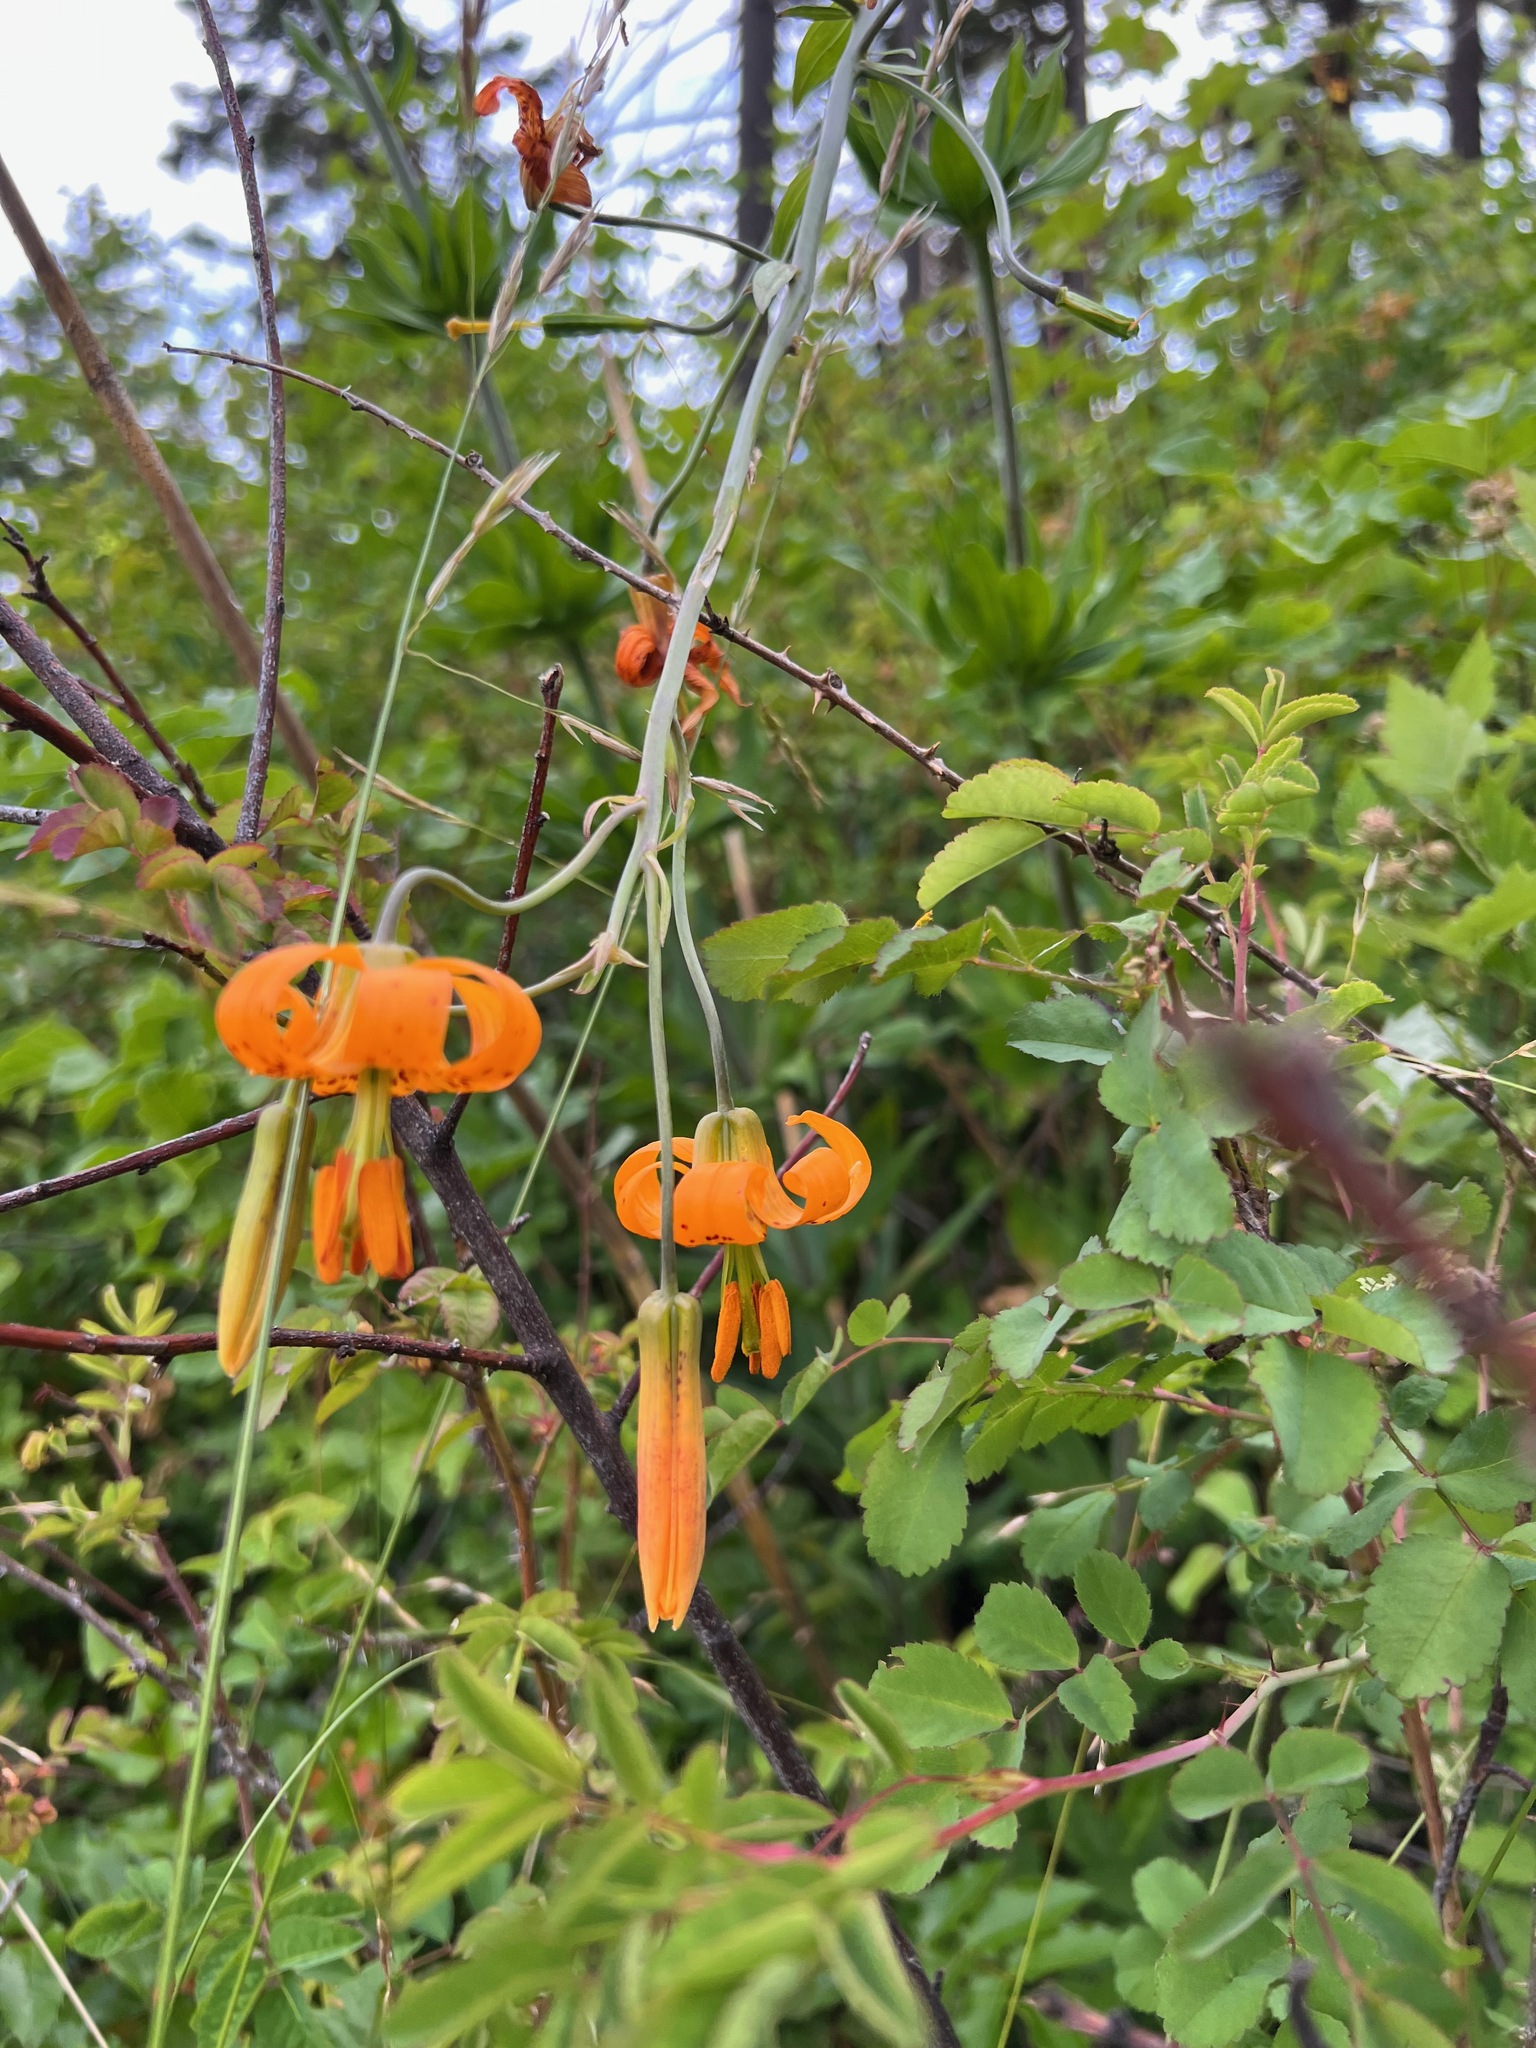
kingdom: Plantae
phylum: Tracheophyta
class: Liliopsida
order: Liliales
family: Liliaceae
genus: Lilium
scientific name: Lilium columbianum
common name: Columbia lily
